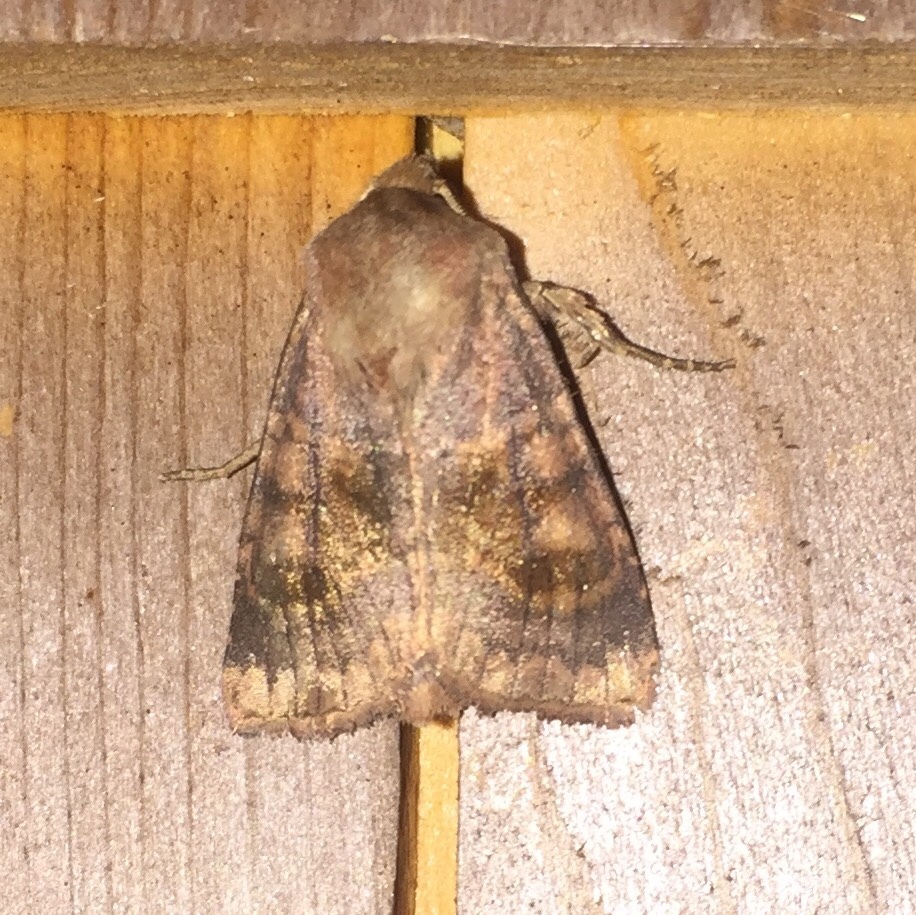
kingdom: Animalia
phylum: Arthropoda
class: Insecta
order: Lepidoptera
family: Noctuidae
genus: Nephelodes
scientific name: Nephelodes minians
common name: Bronzed cutworm
